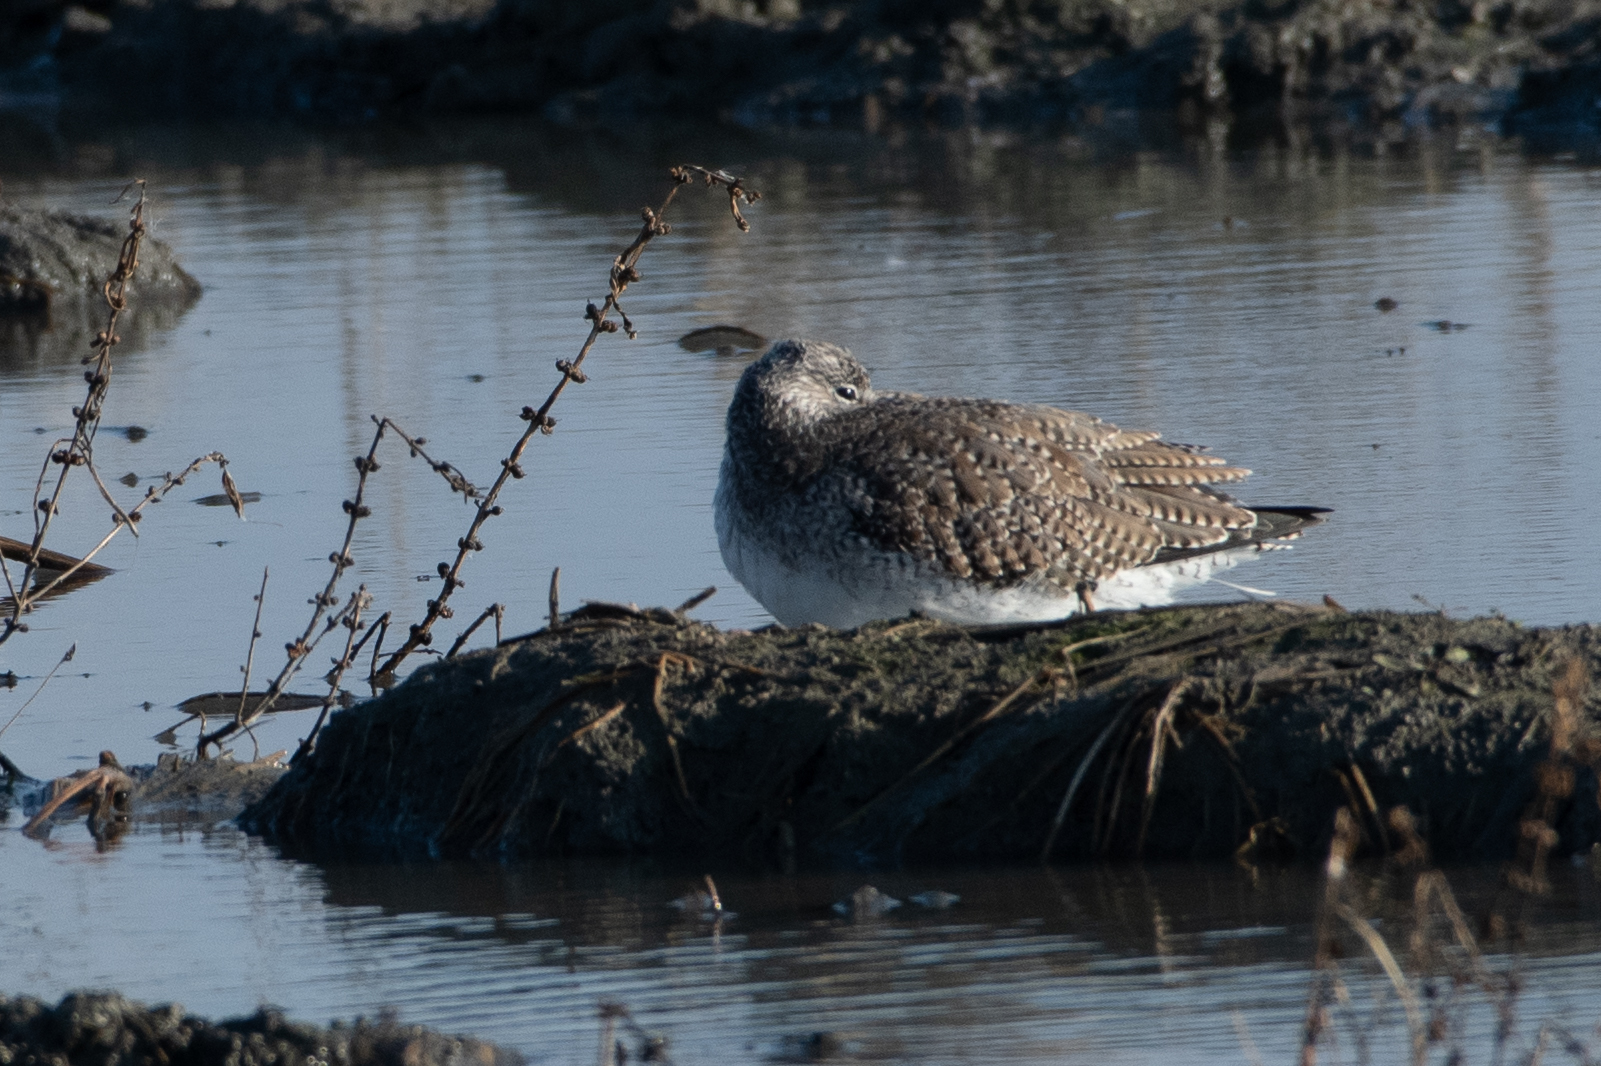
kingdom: Animalia
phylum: Chordata
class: Aves
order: Charadriiformes
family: Scolopacidae
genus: Tringa
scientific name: Tringa melanoleuca
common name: Greater yellowlegs
